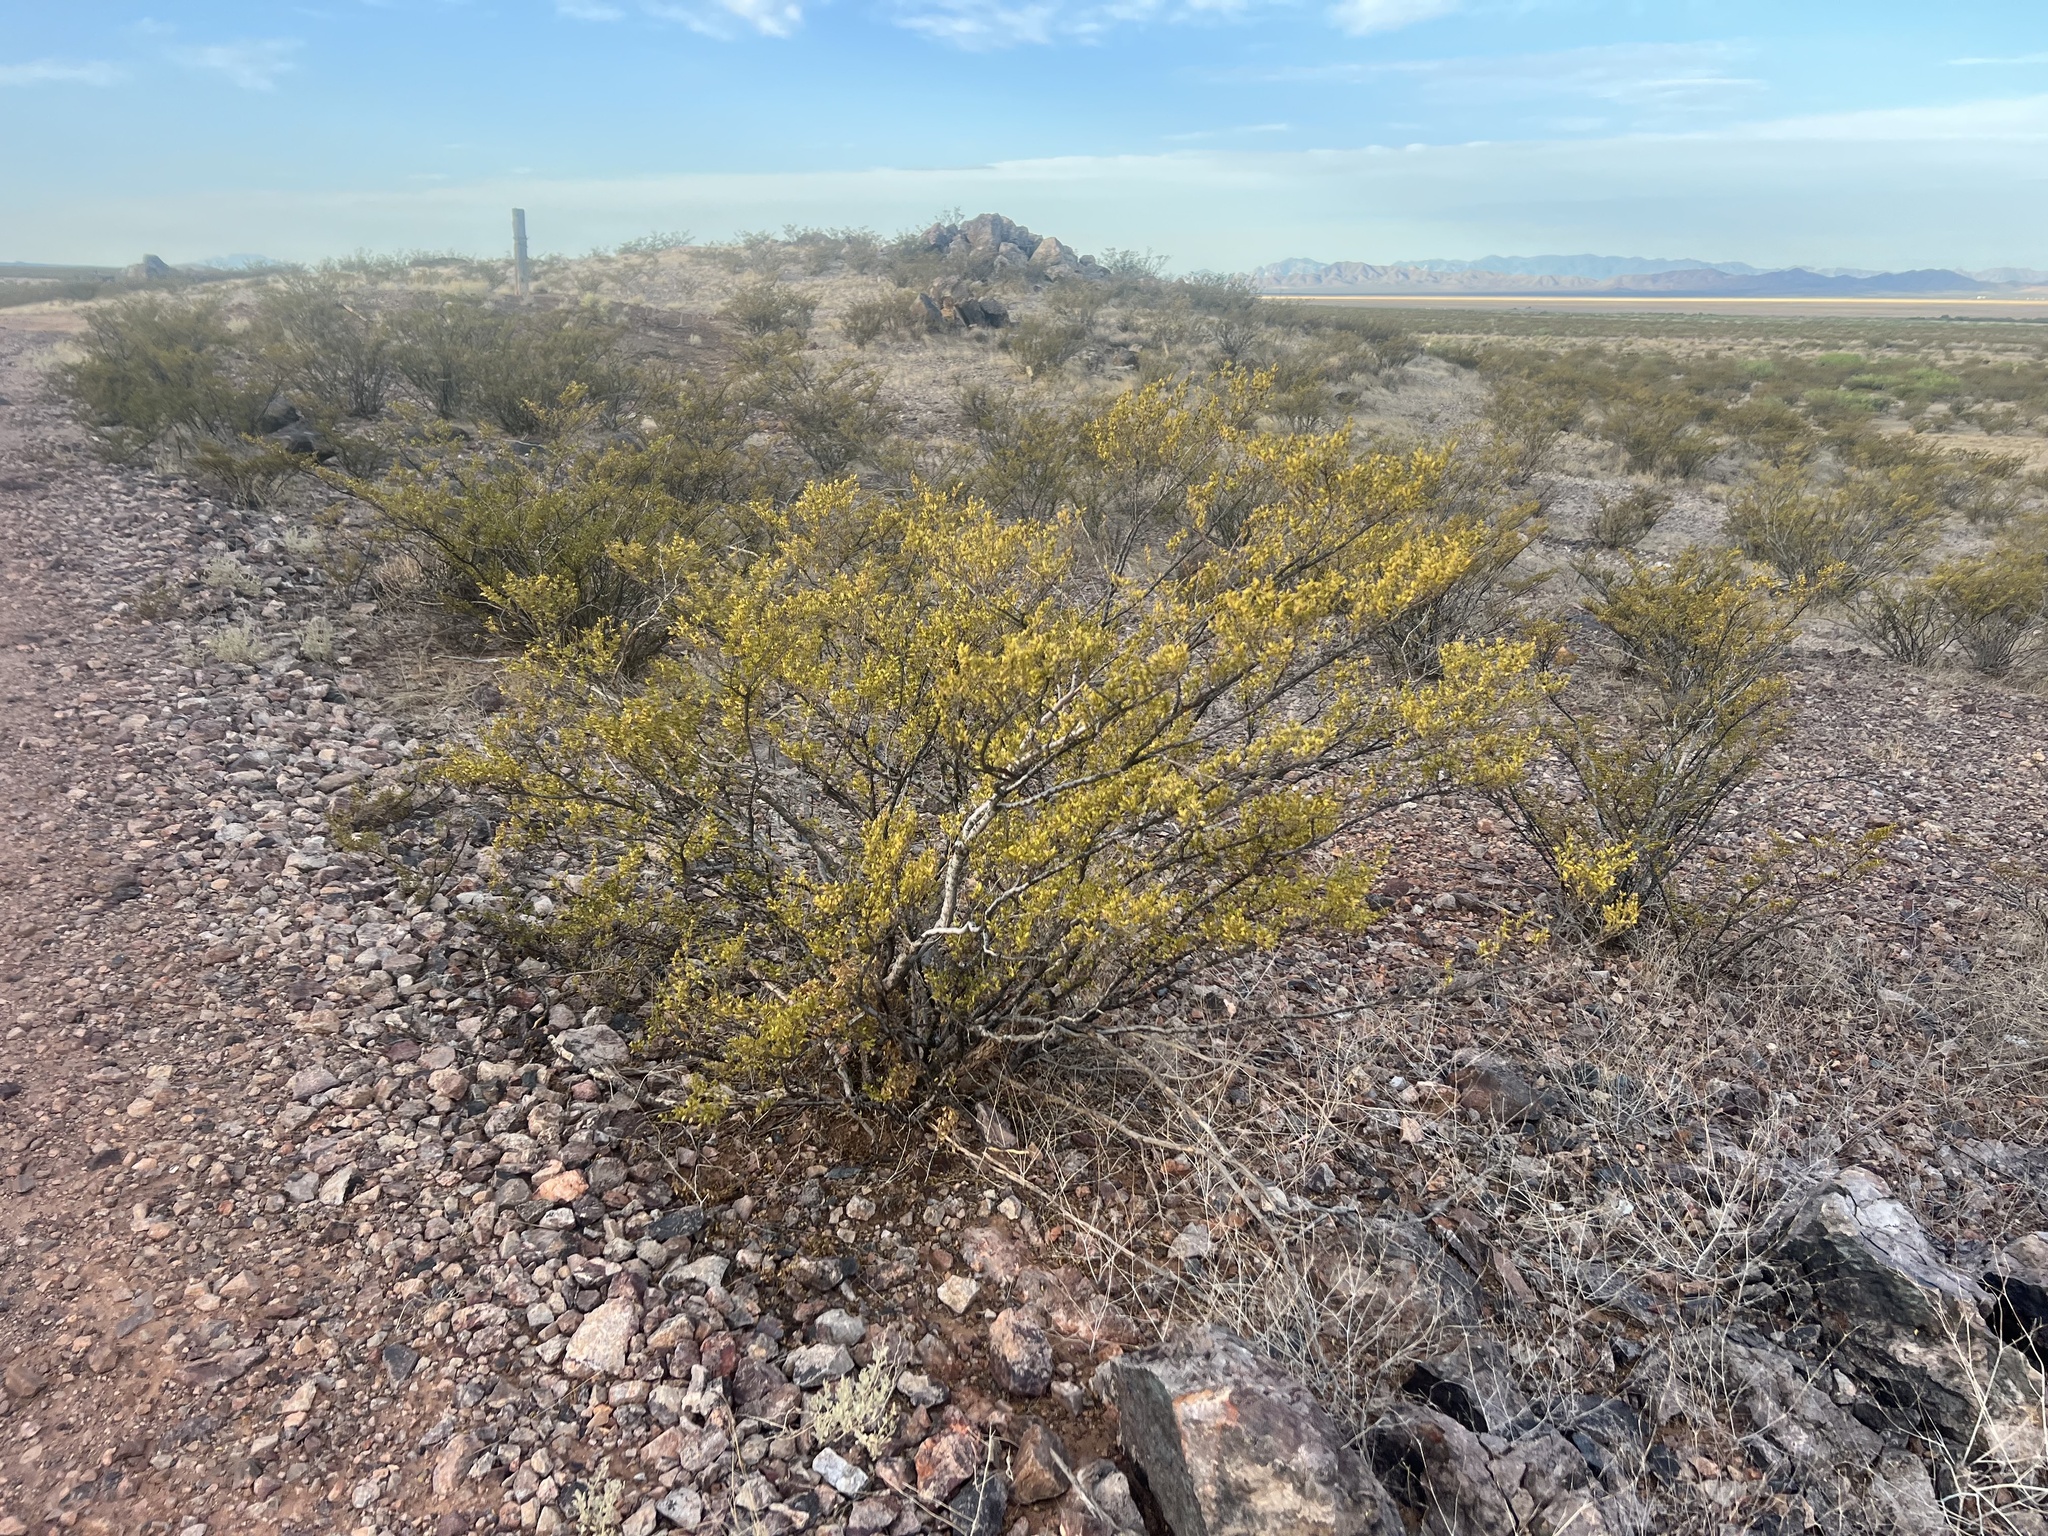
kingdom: Plantae
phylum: Tracheophyta
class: Magnoliopsida
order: Zygophyllales
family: Zygophyllaceae
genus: Larrea
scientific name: Larrea tridentata
